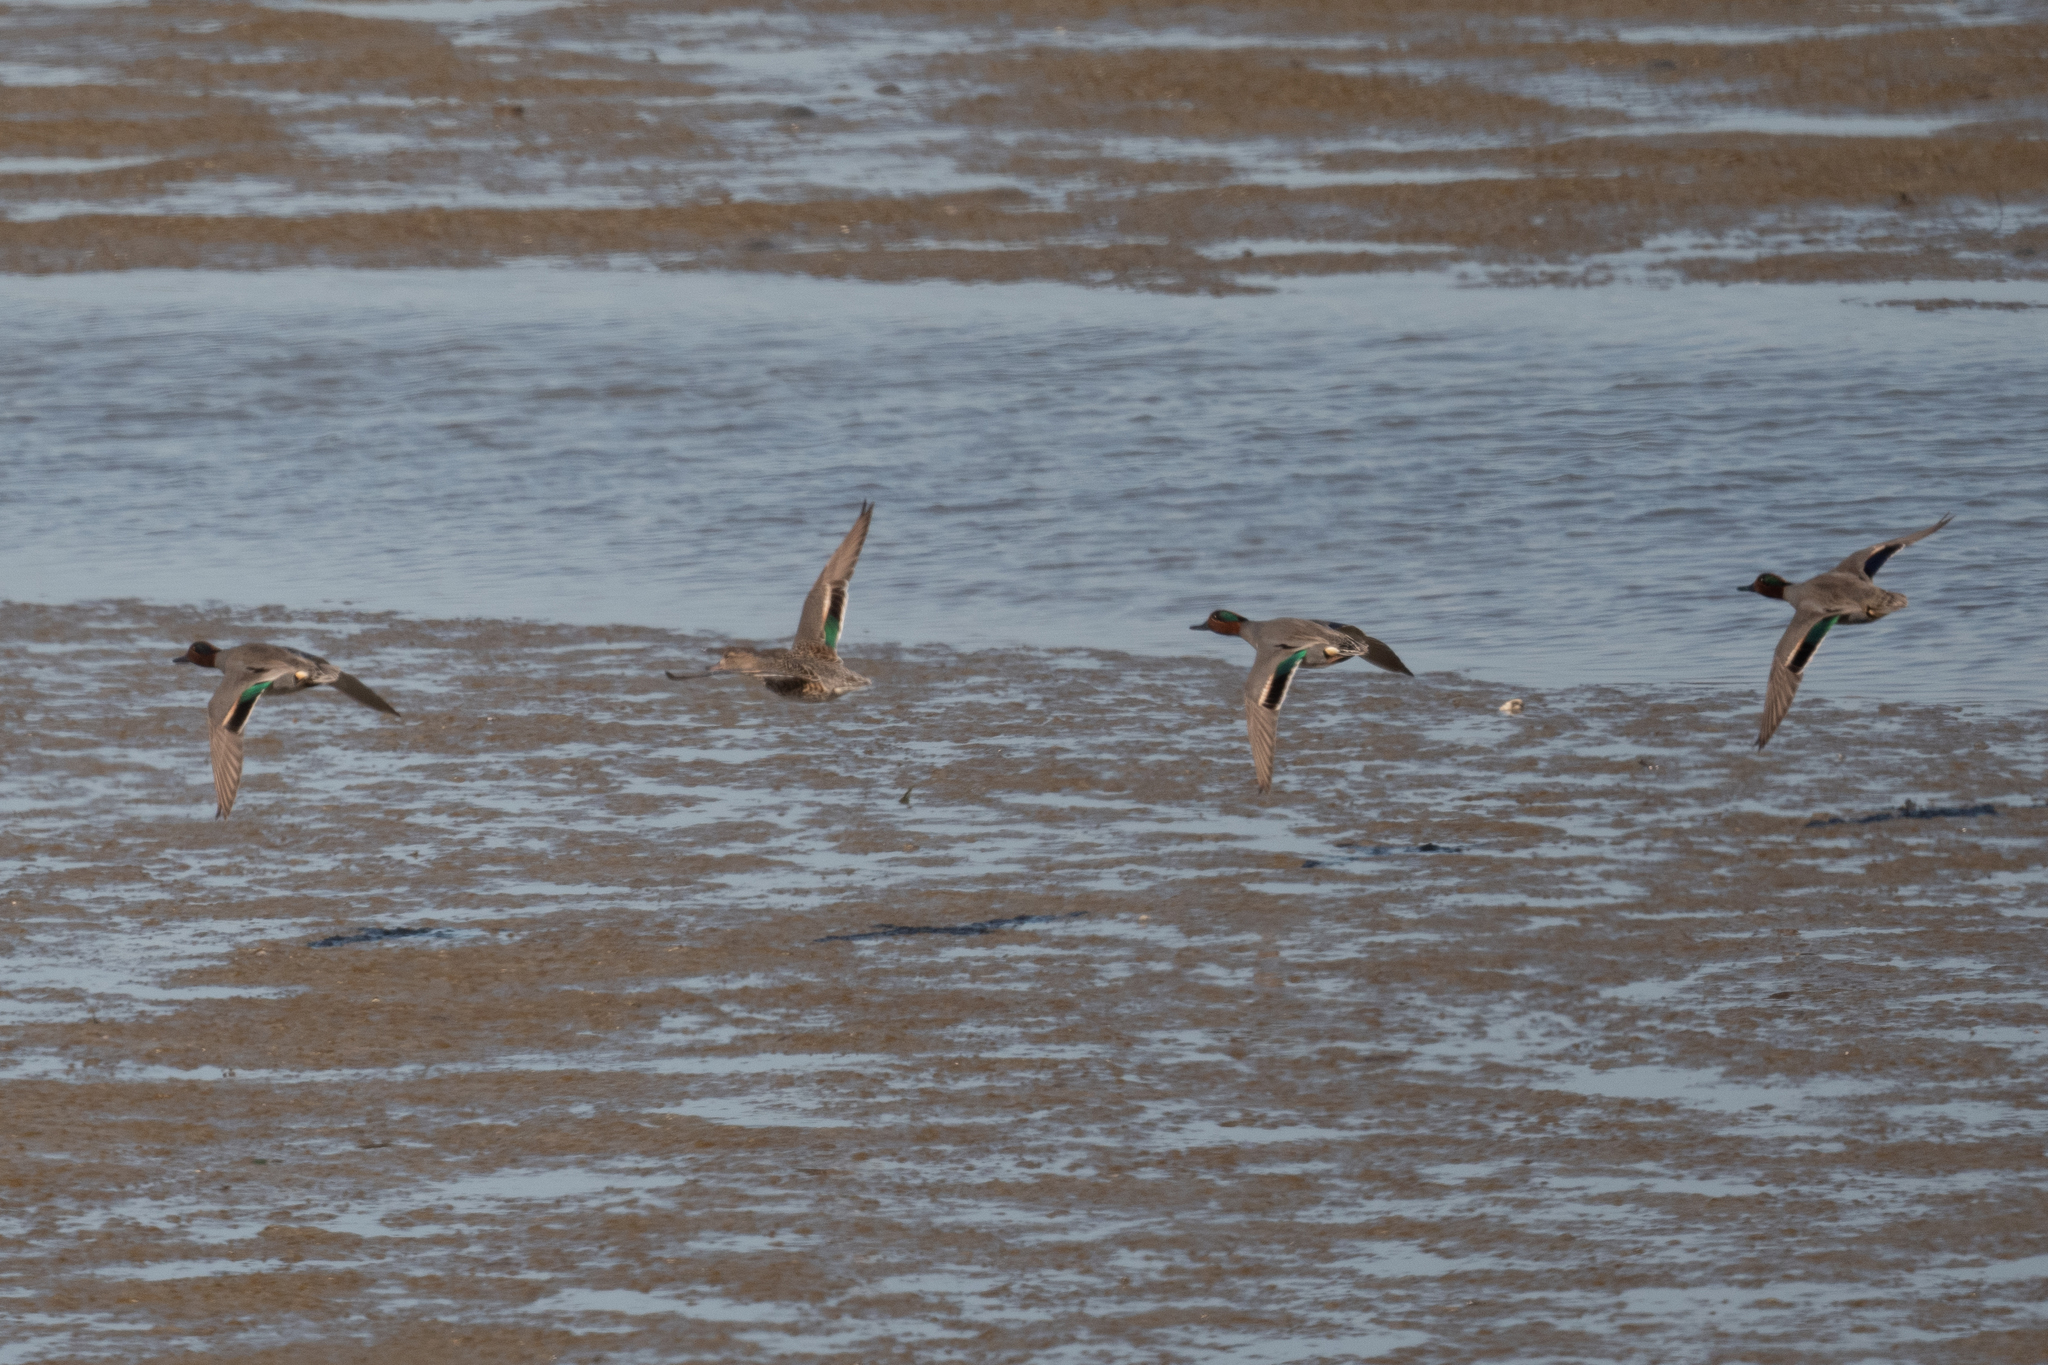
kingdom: Animalia
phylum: Chordata
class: Aves
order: Anseriformes
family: Anatidae
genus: Anas
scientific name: Anas crecca
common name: Eurasian teal
